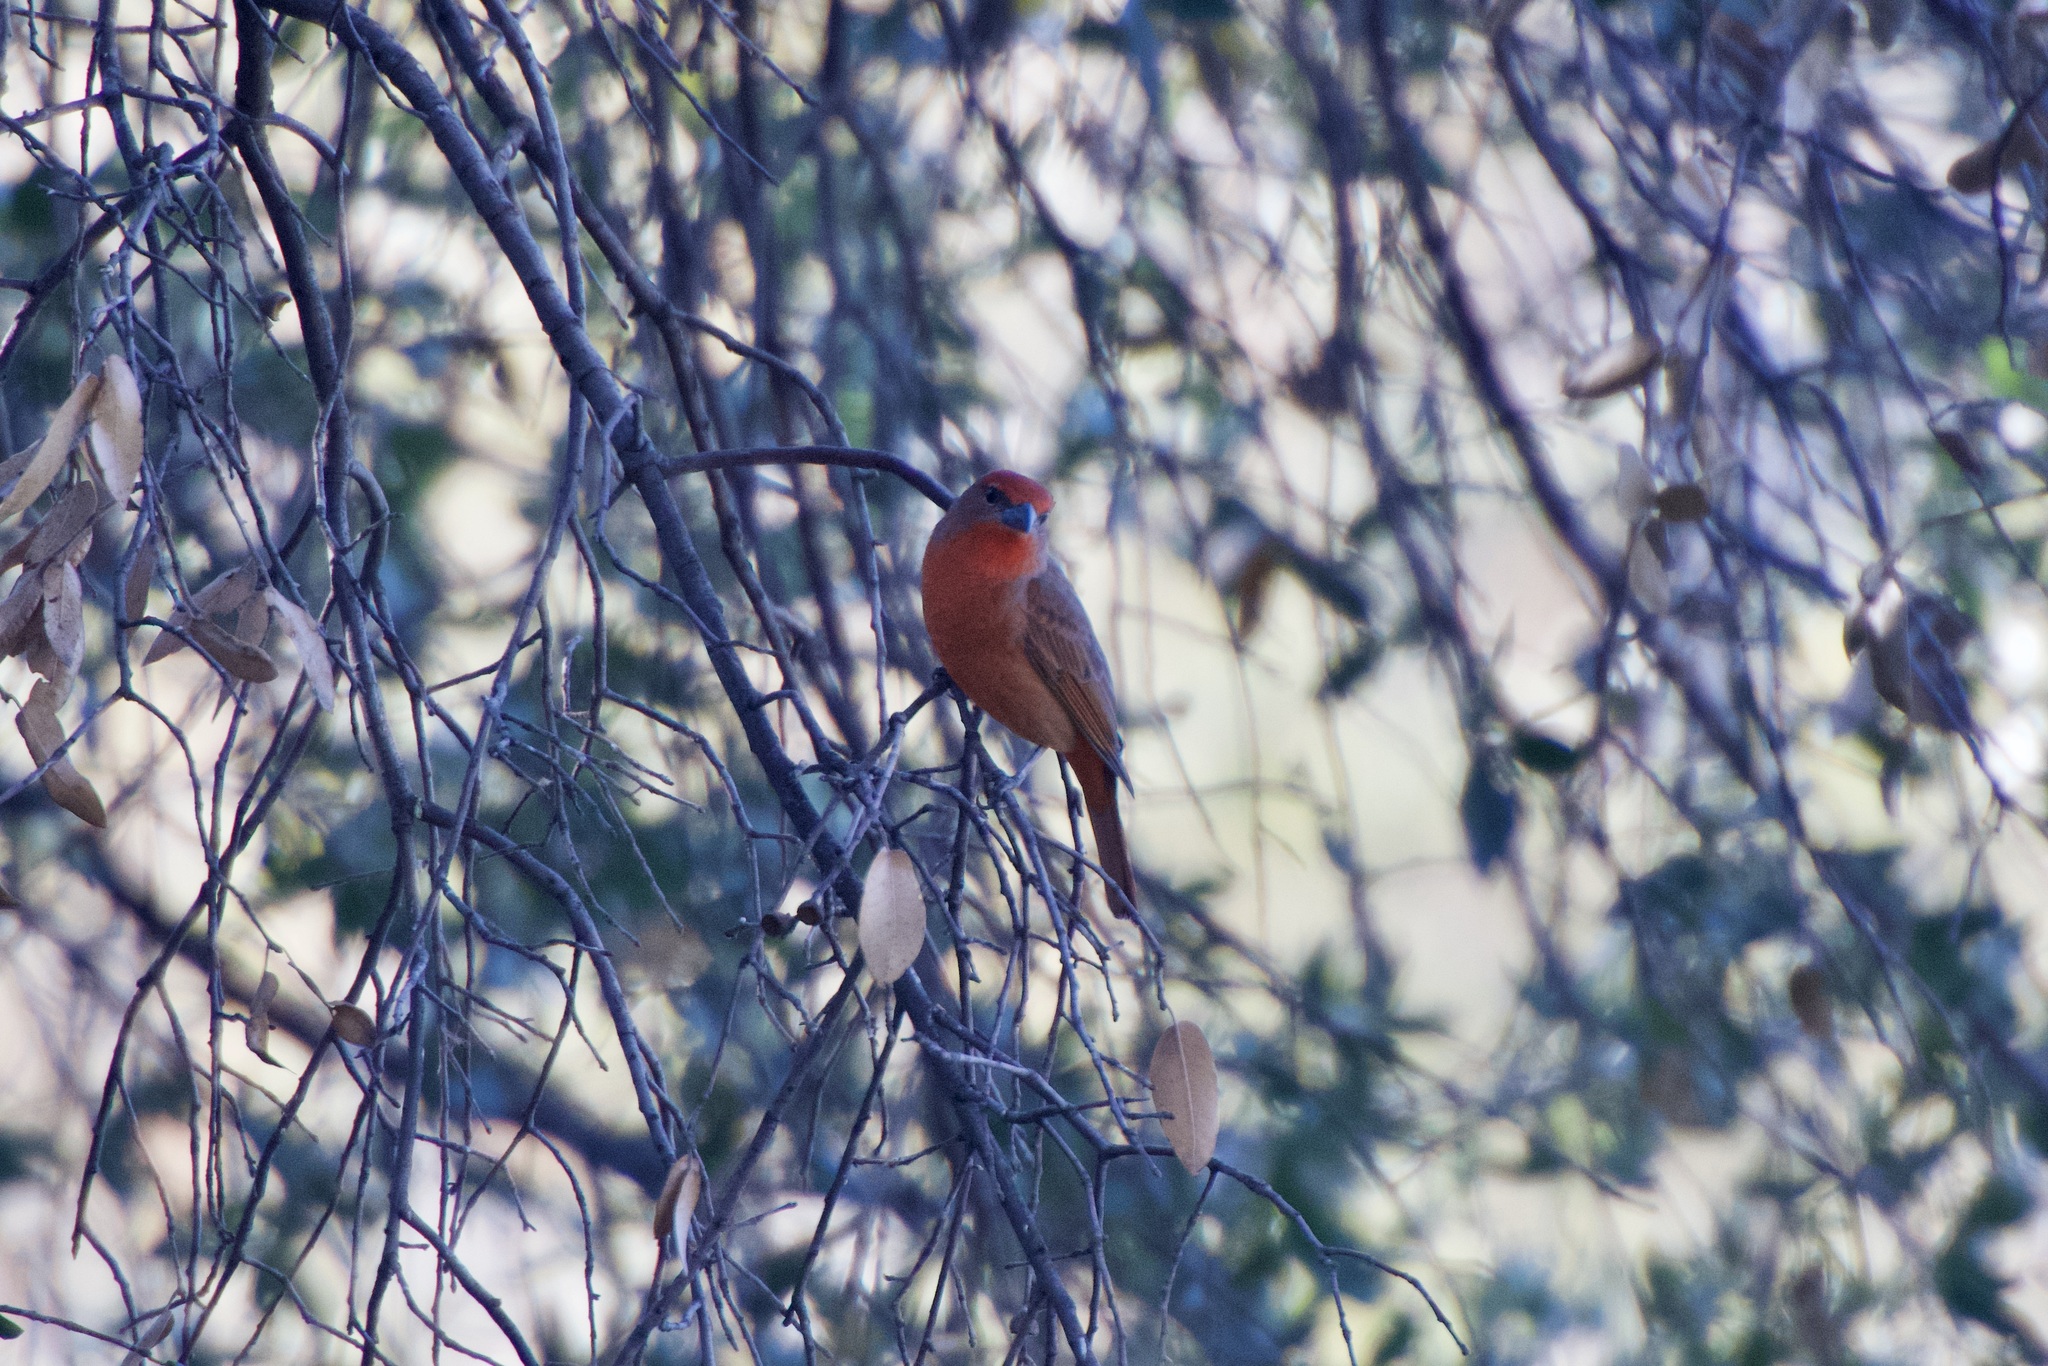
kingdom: Animalia
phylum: Chordata
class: Aves
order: Passeriformes
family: Cardinalidae
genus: Piranga
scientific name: Piranga flava
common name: Red tanager
